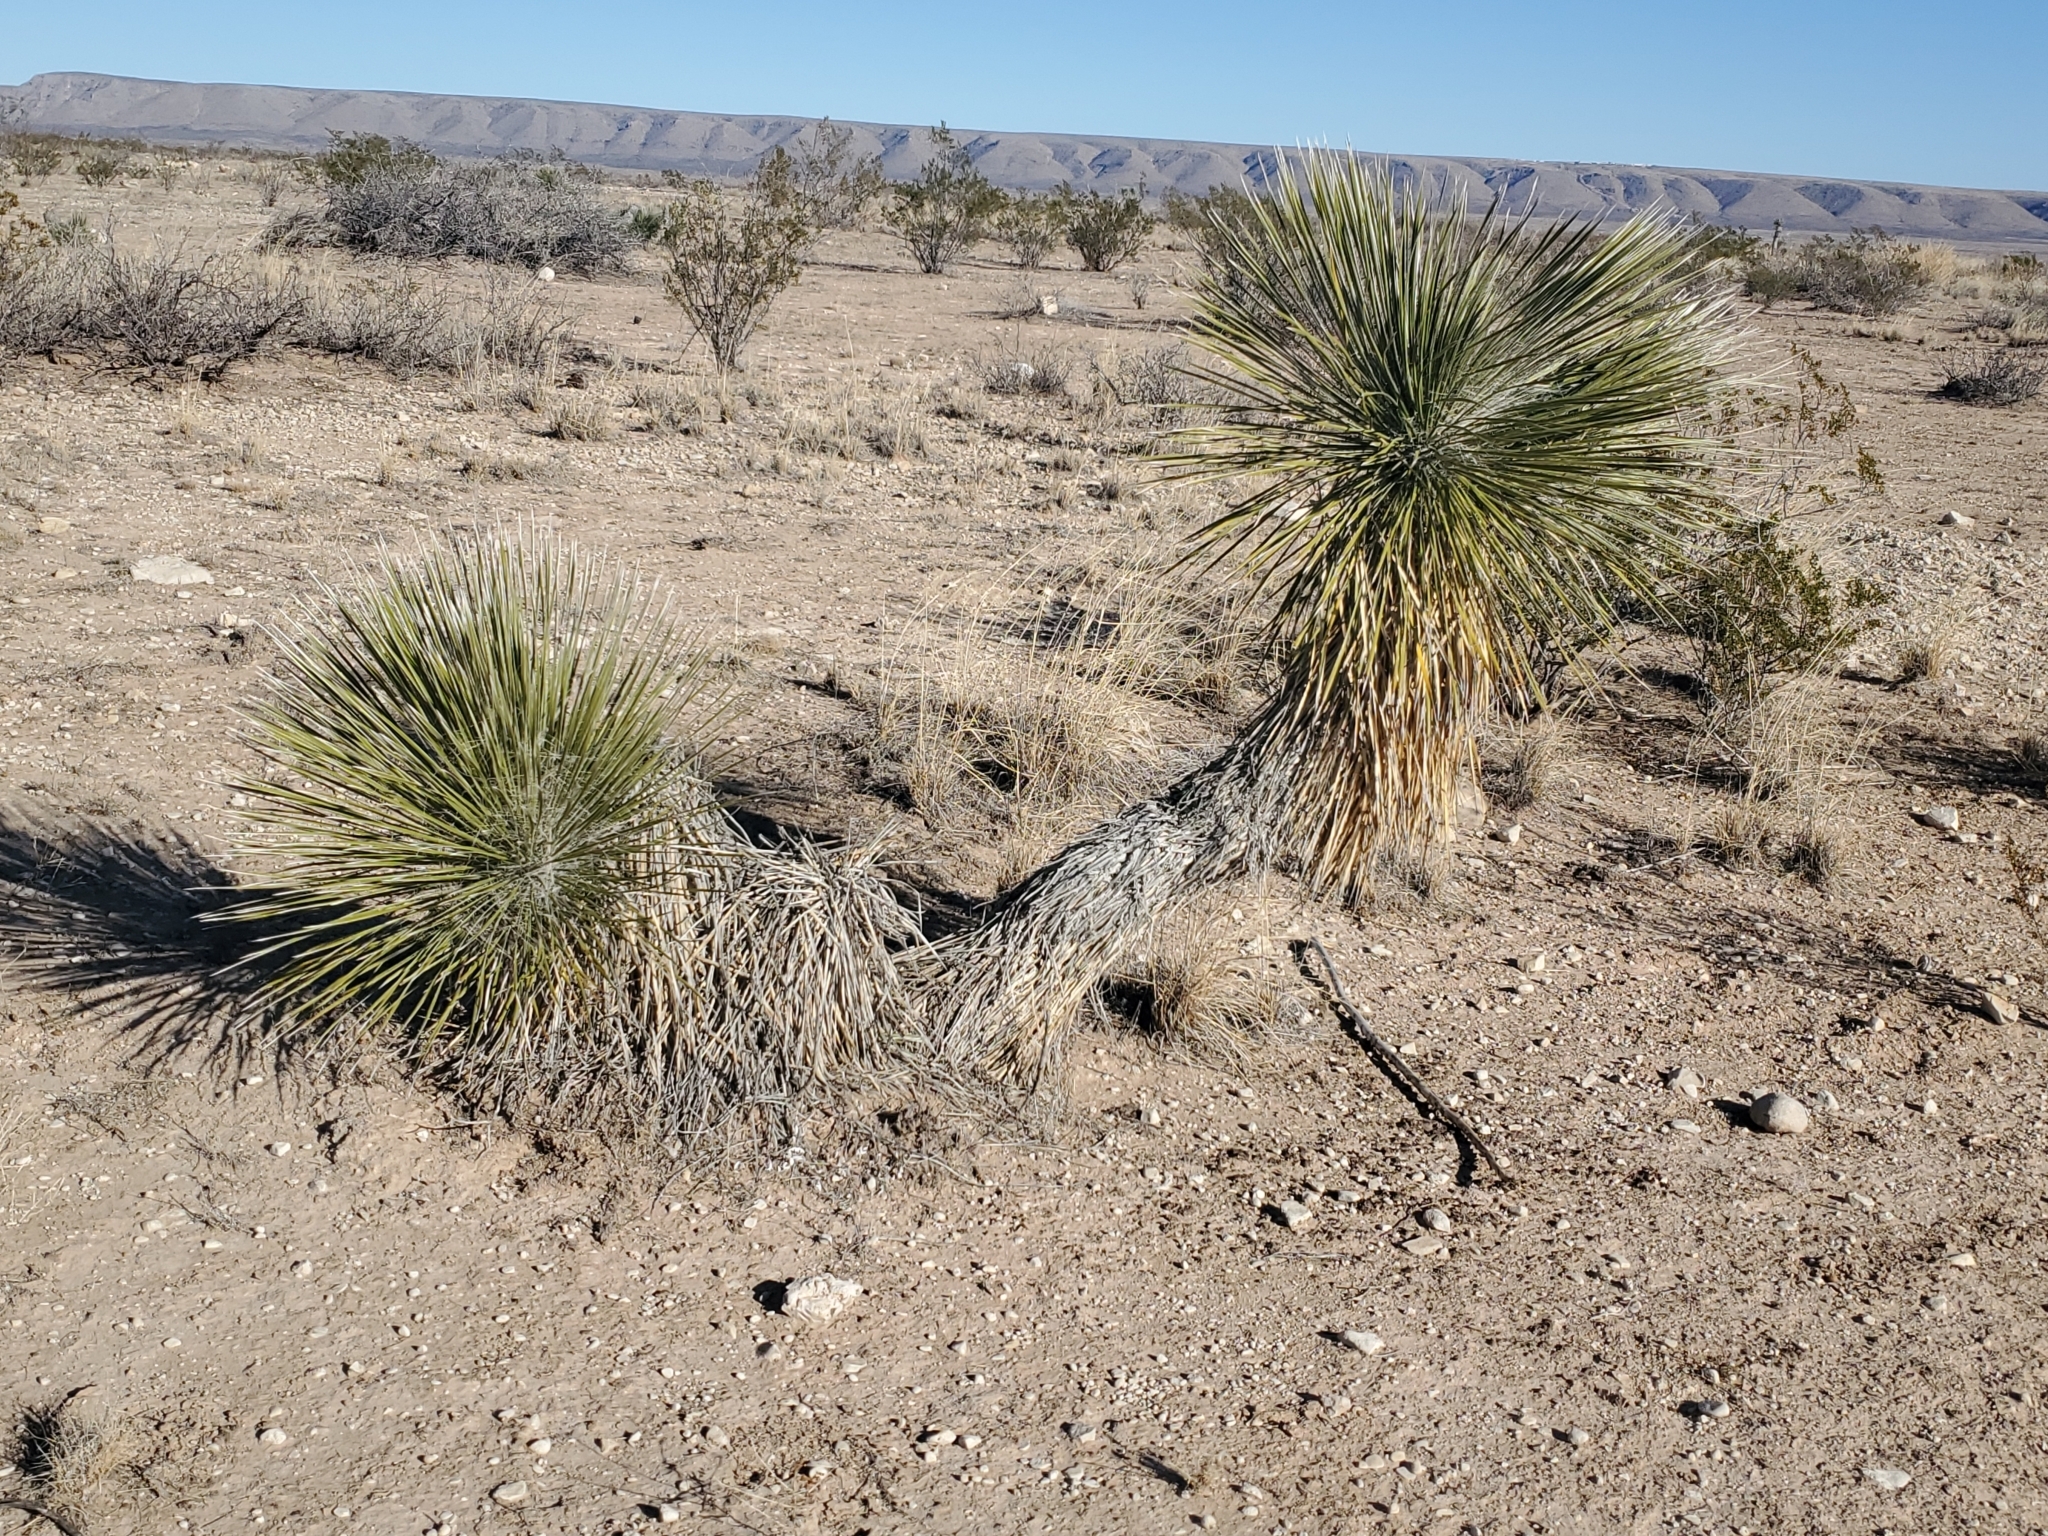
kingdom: Plantae
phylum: Tracheophyta
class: Liliopsida
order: Asparagales
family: Asparagaceae
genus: Yucca
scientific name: Yucca elata
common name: Palmella
